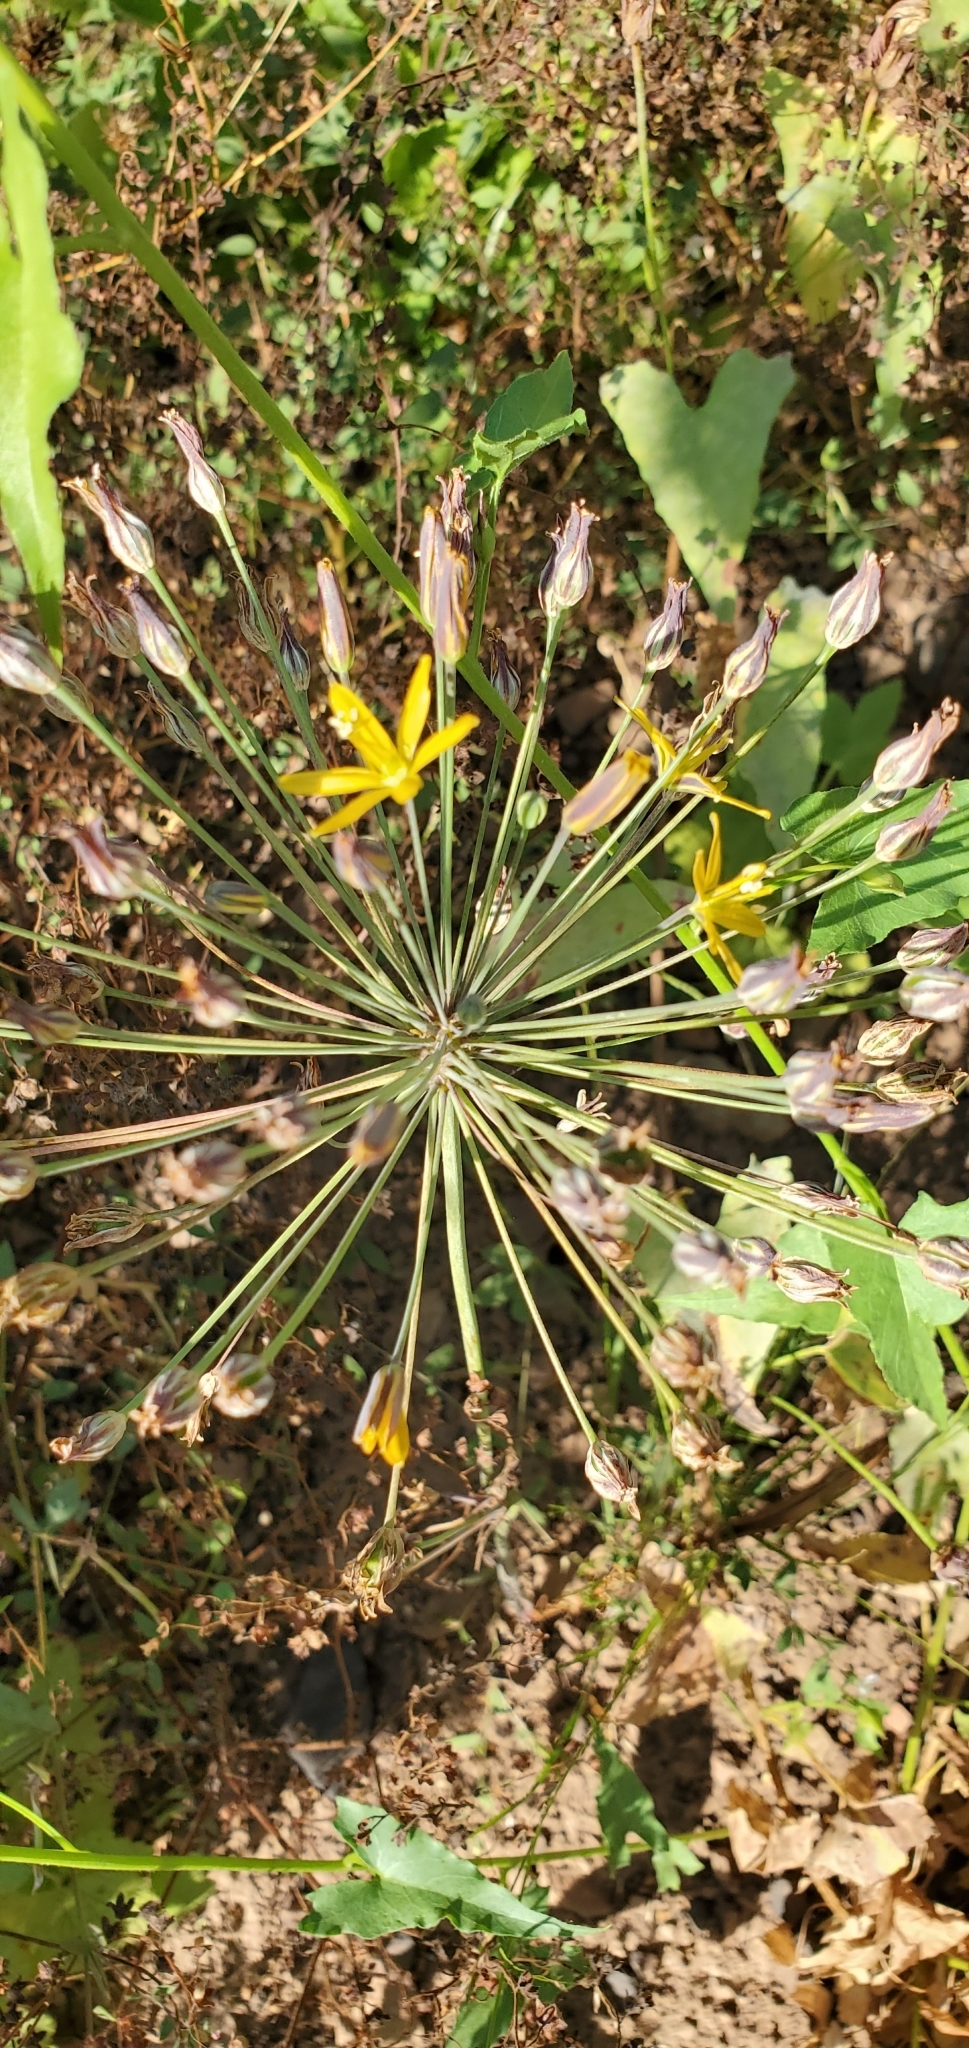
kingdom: Plantae
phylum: Tracheophyta
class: Liliopsida
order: Asparagales
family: Asparagaceae
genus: Bloomeria
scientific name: Bloomeria crocea
